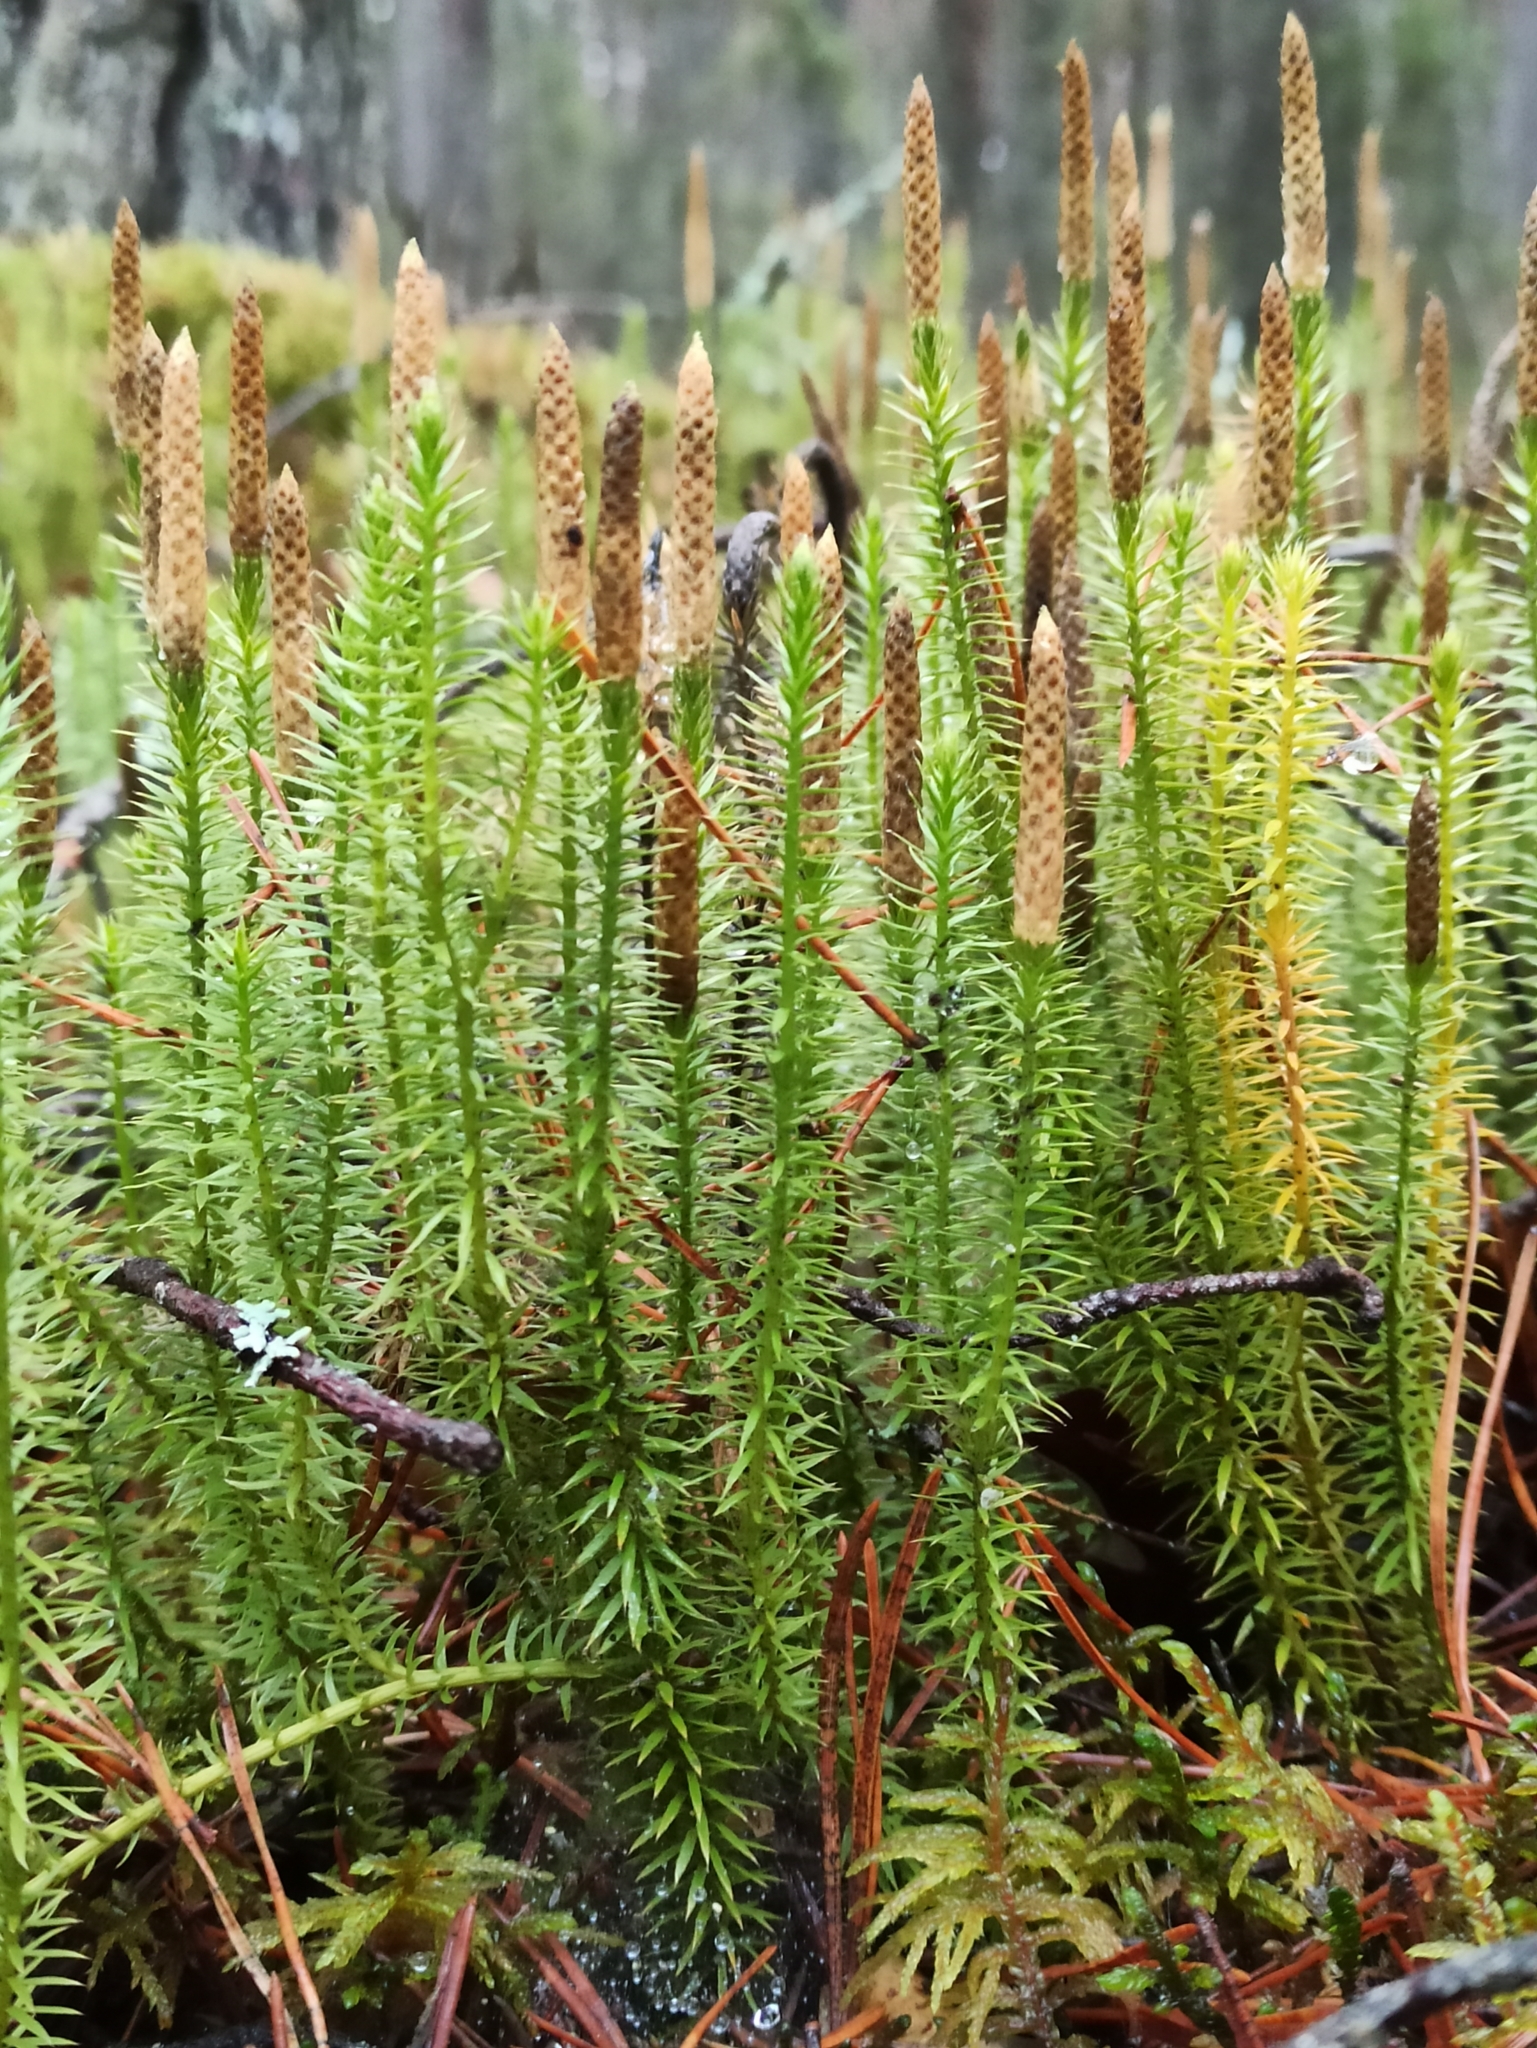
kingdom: Plantae
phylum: Tracheophyta
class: Lycopodiopsida
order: Lycopodiales
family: Lycopodiaceae
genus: Spinulum
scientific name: Spinulum annotinum
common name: Interrupted club-moss
